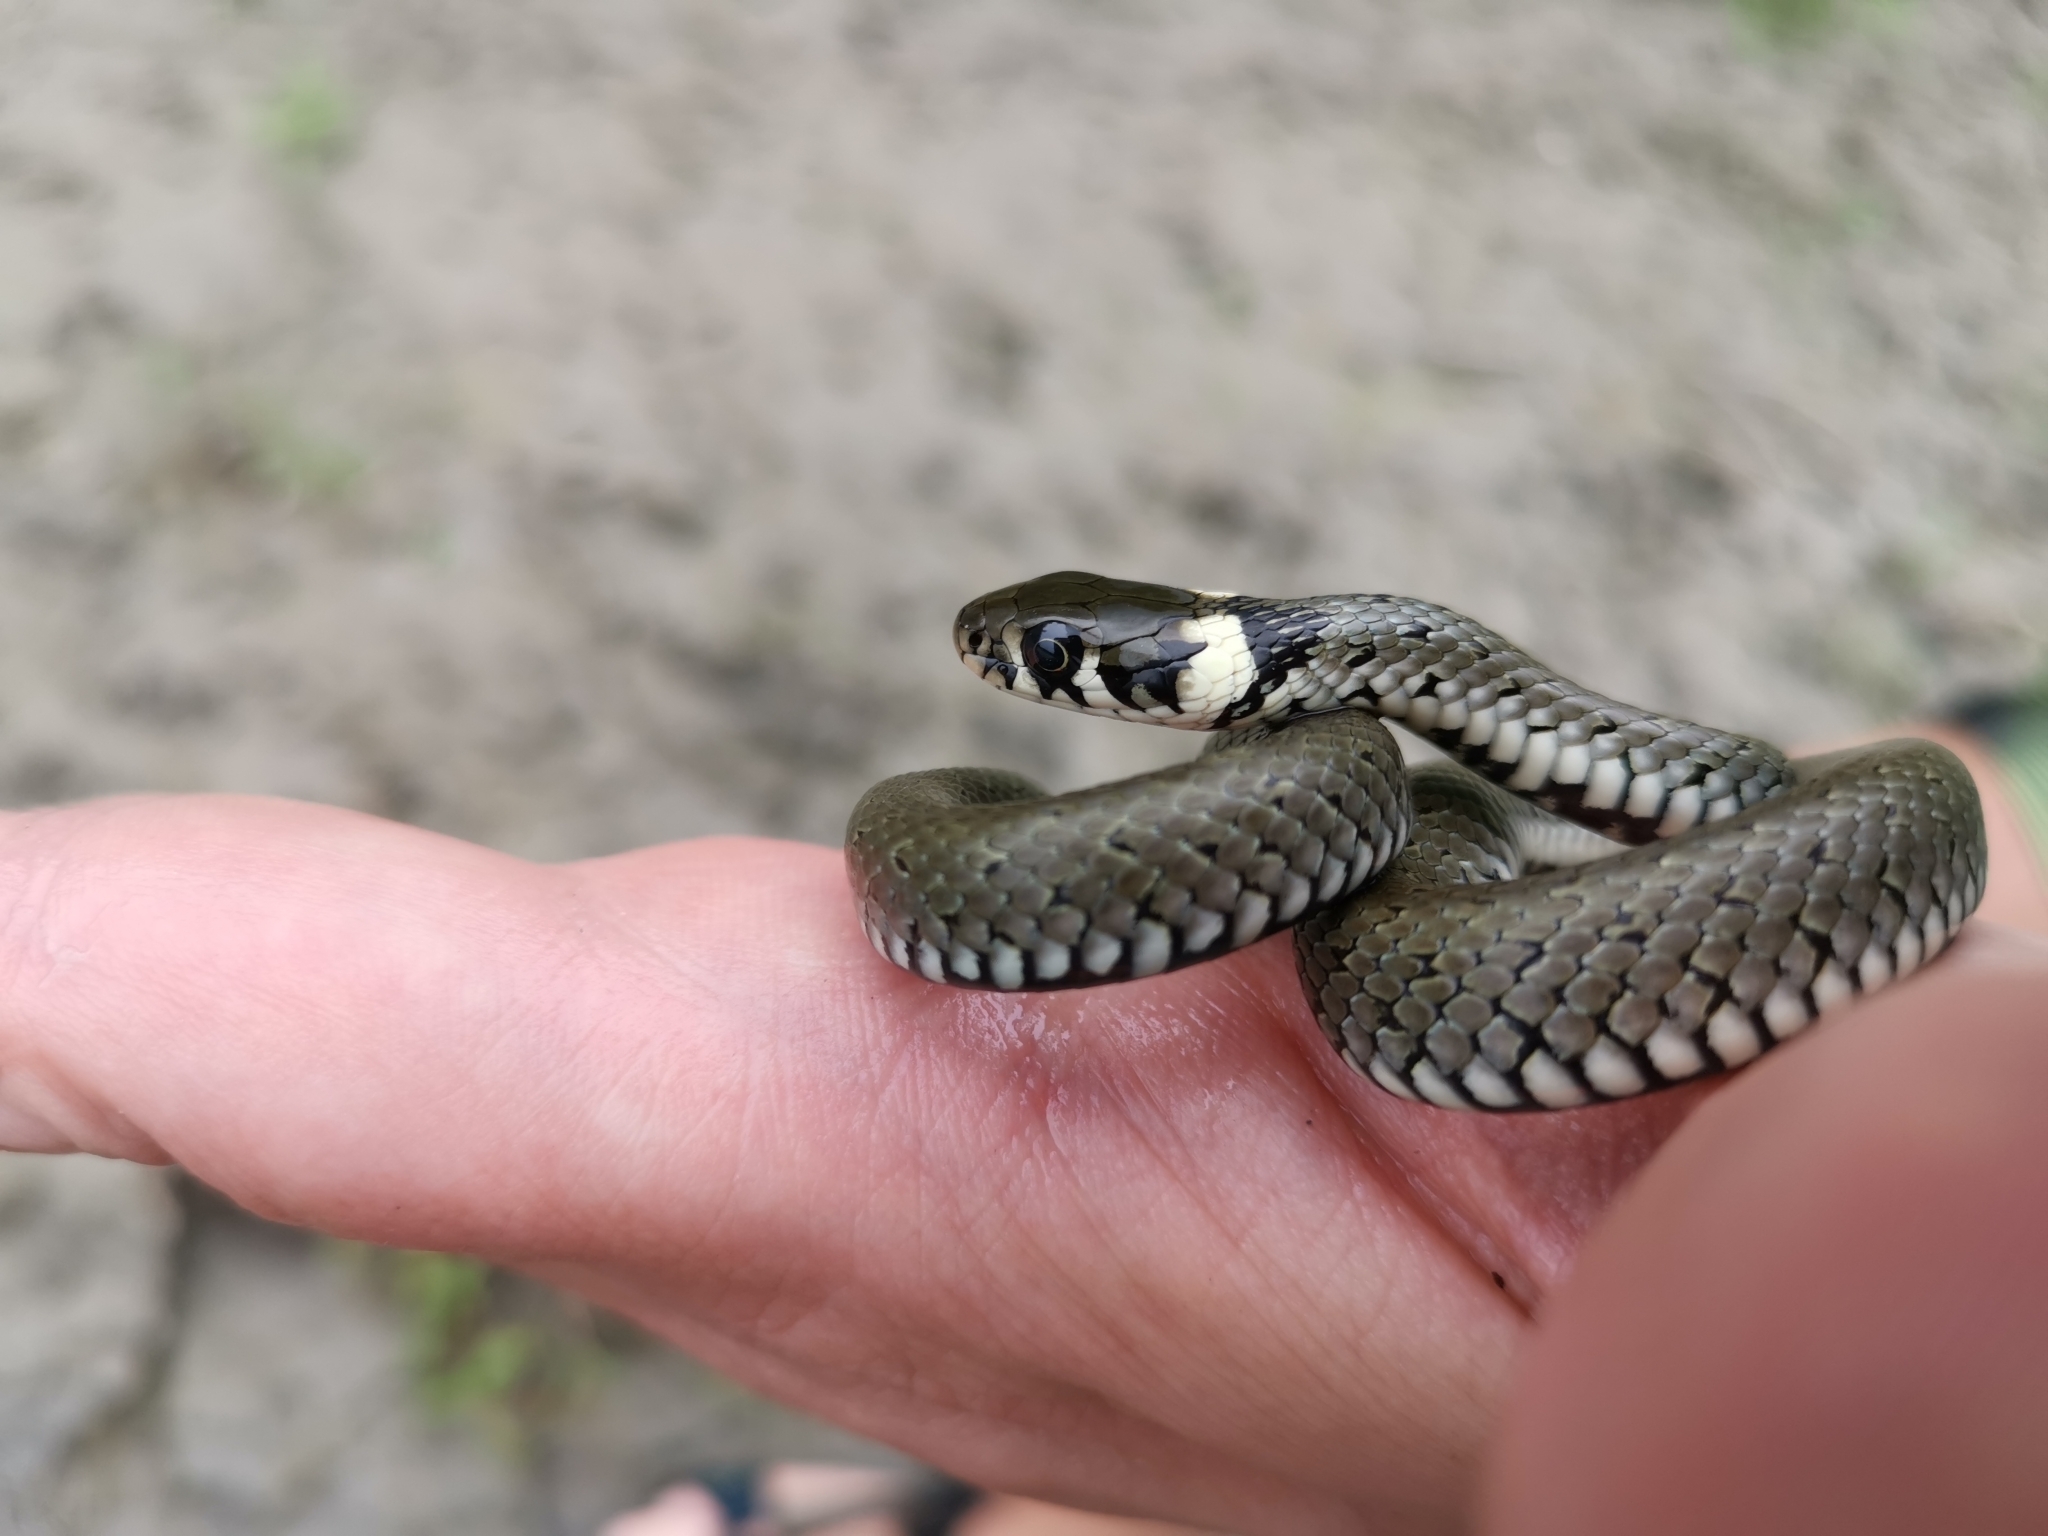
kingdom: Animalia
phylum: Chordata
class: Squamata
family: Colubridae
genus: Natrix
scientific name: Natrix natrix
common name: Grass snake
